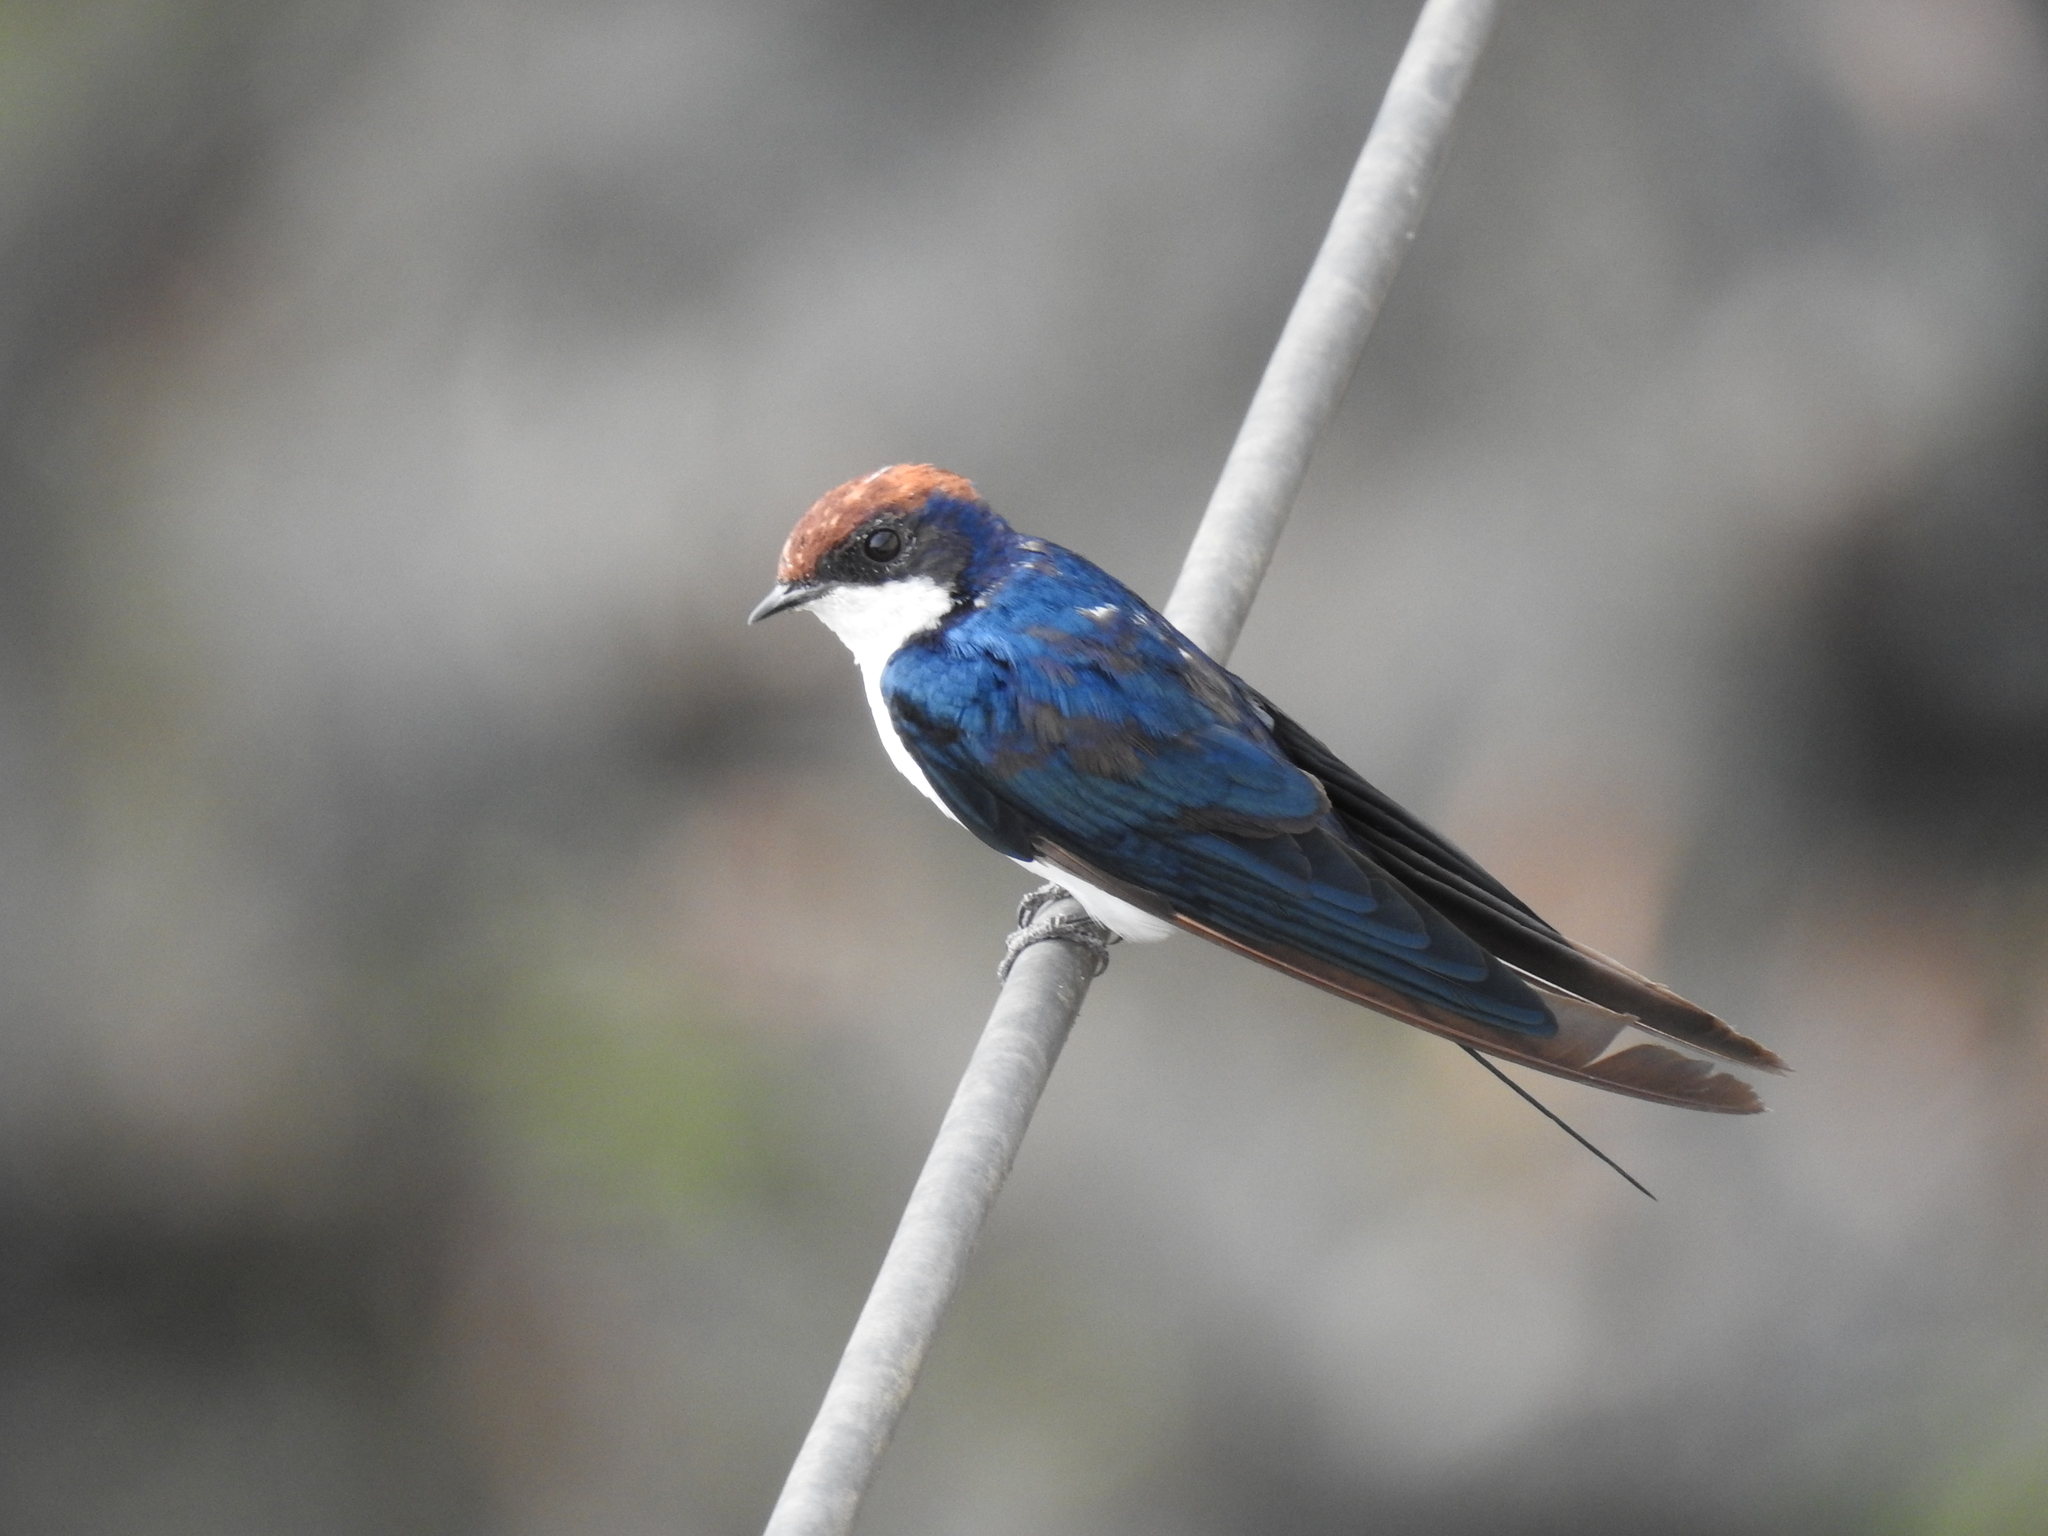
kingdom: Animalia
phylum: Chordata
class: Aves
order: Passeriformes
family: Hirundinidae
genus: Hirundo
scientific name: Hirundo smithii
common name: Wire-tailed swallow
